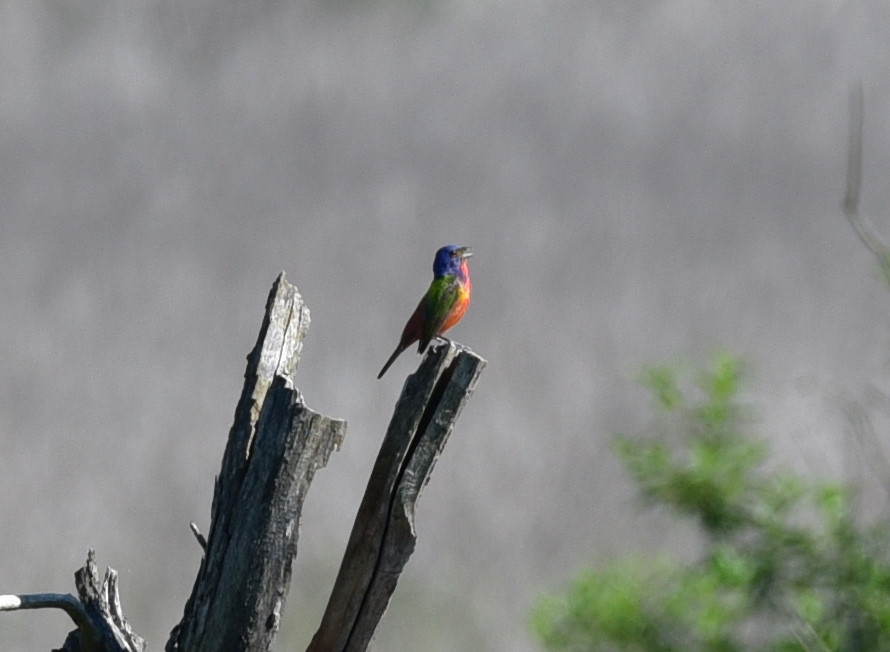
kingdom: Animalia
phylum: Chordata
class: Aves
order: Passeriformes
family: Cardinalidae
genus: Passerina
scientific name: Passerina ciris
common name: Painted bunting
